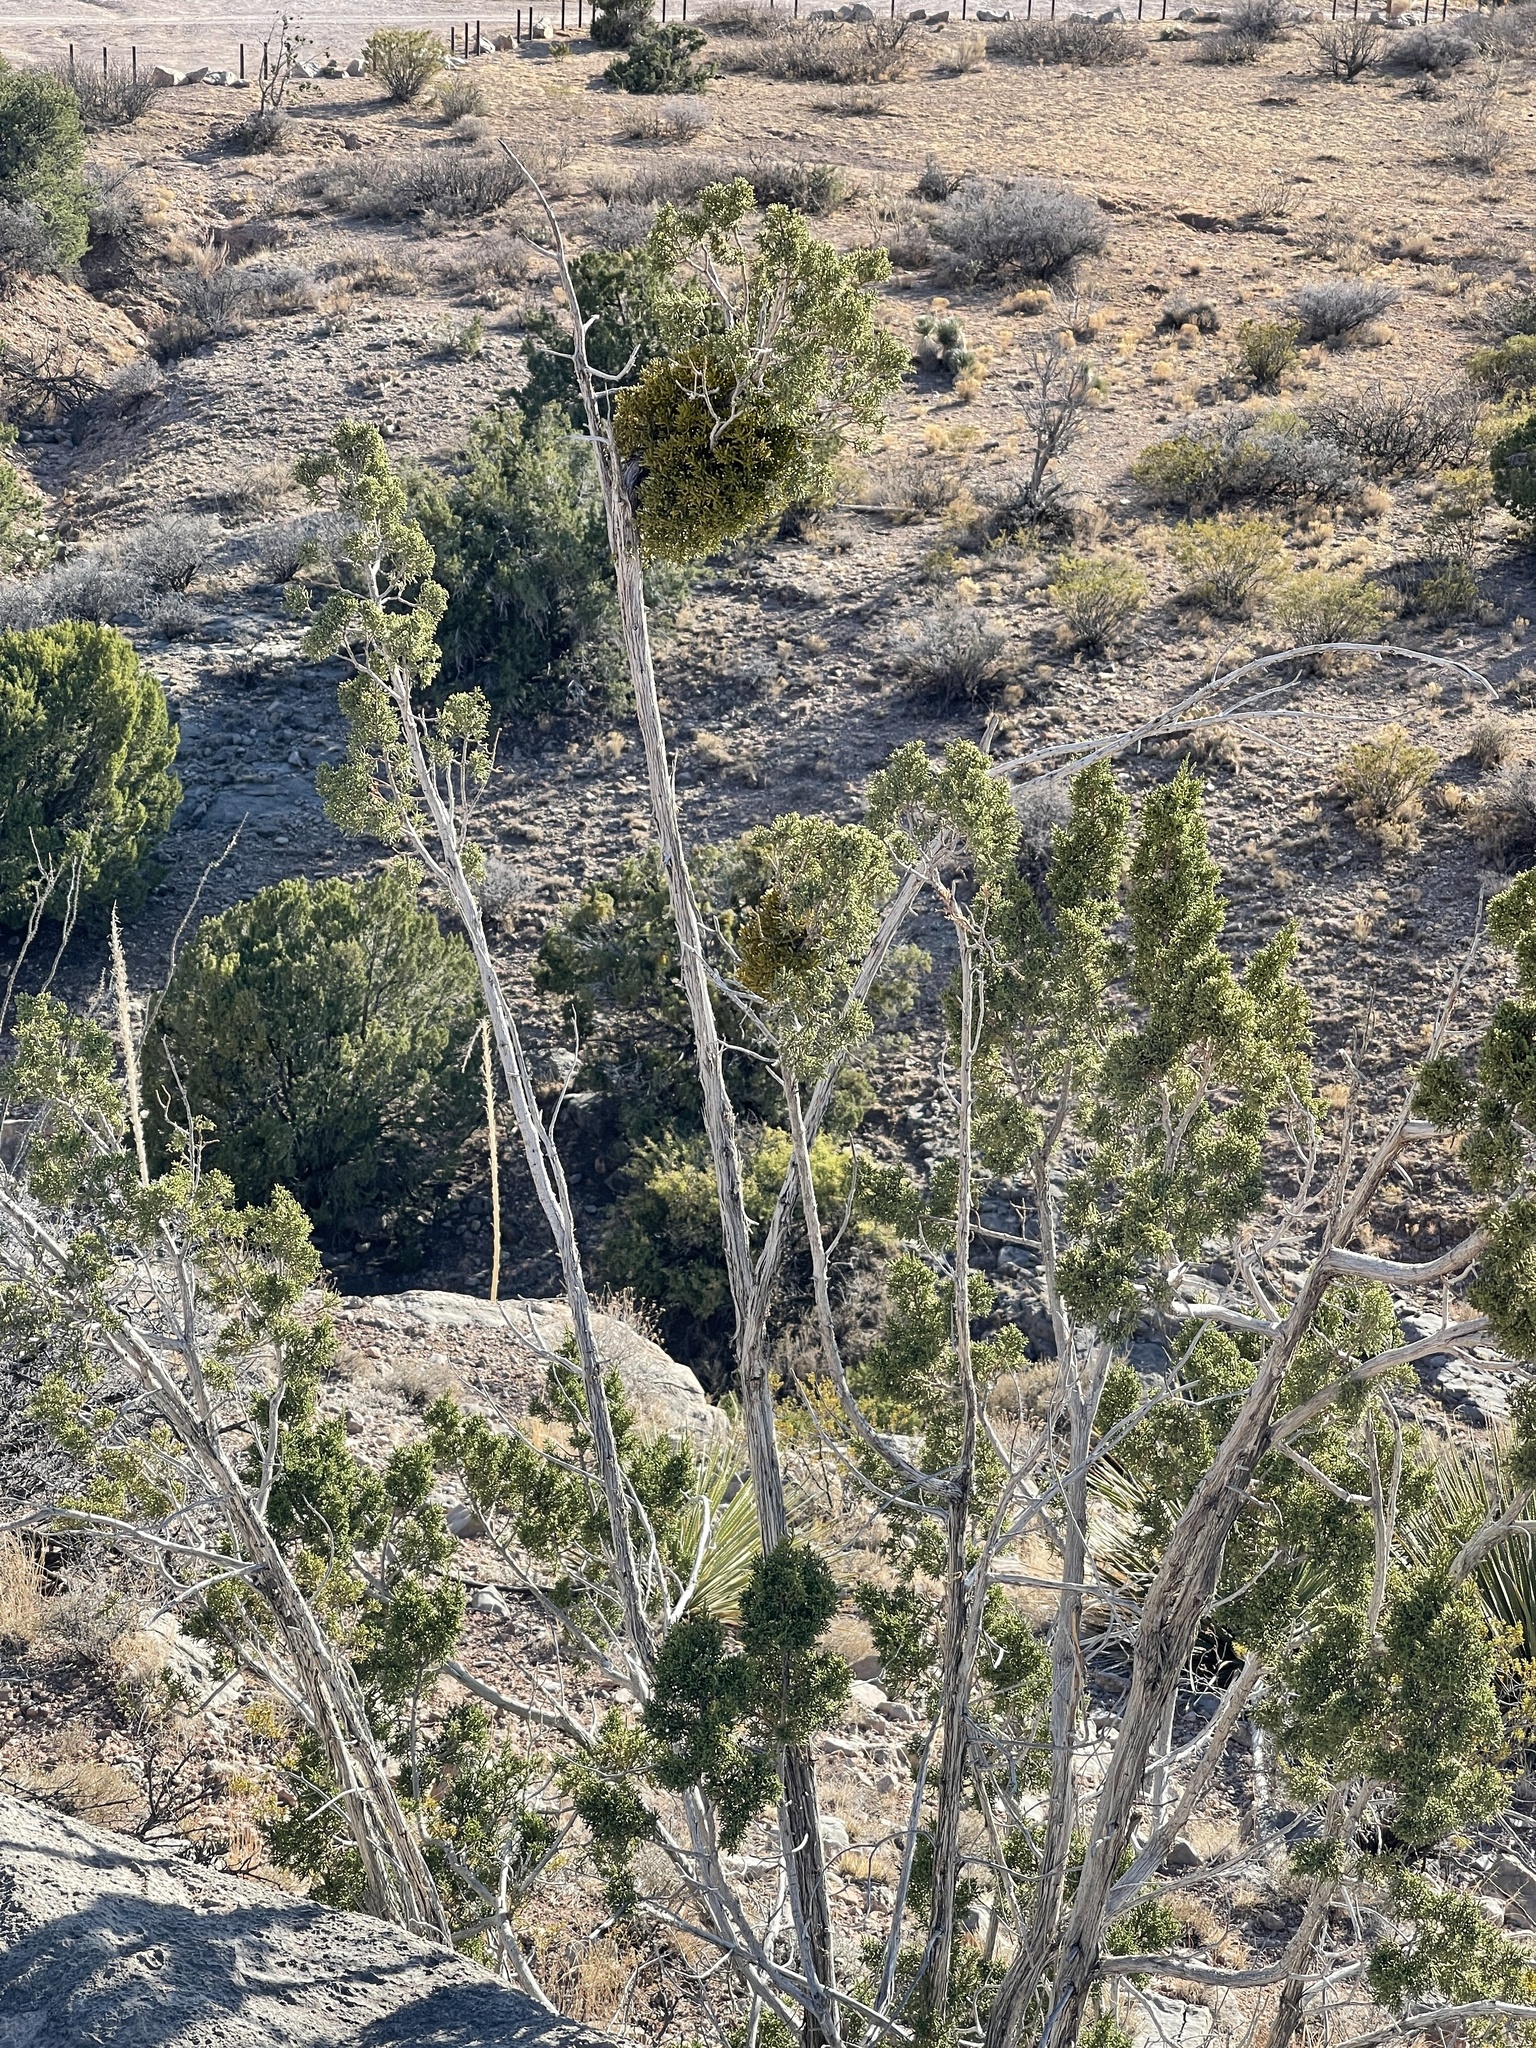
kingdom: Plantae
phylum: Tracheophyta
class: Pinopsida
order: Pinales
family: Cupressaceae
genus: Juniperus
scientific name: Juniperus monosperma
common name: One-seed juniper
